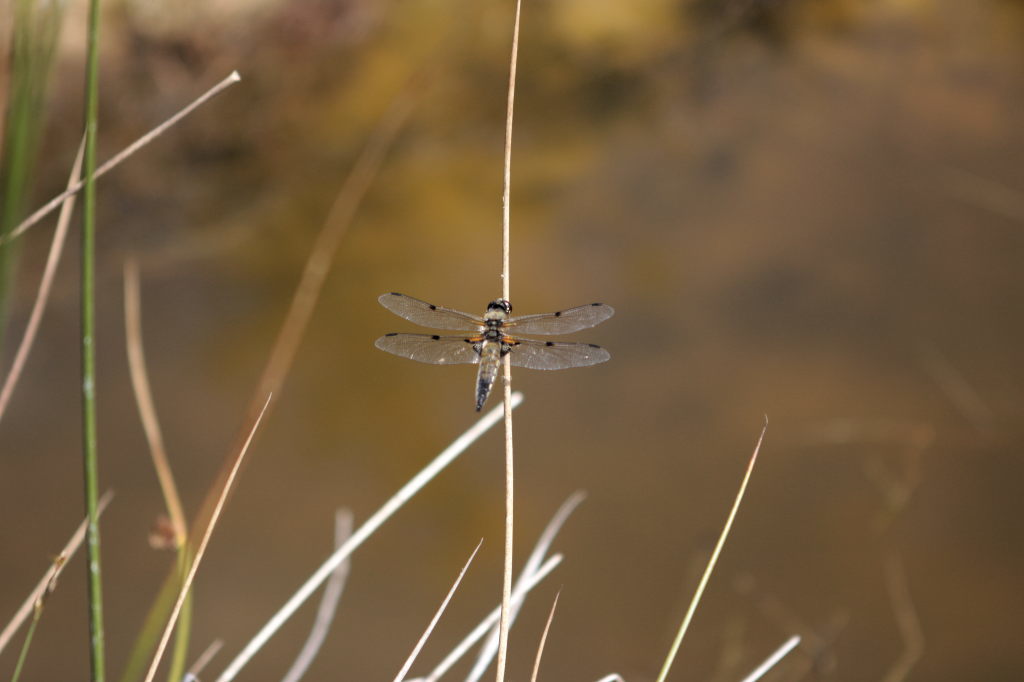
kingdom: Animalia
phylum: Arthropoda
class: Insecta
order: Odonata
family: Libellulidae
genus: Libellula
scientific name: Libellula quadrimaculata
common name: Four-spotted chaser
